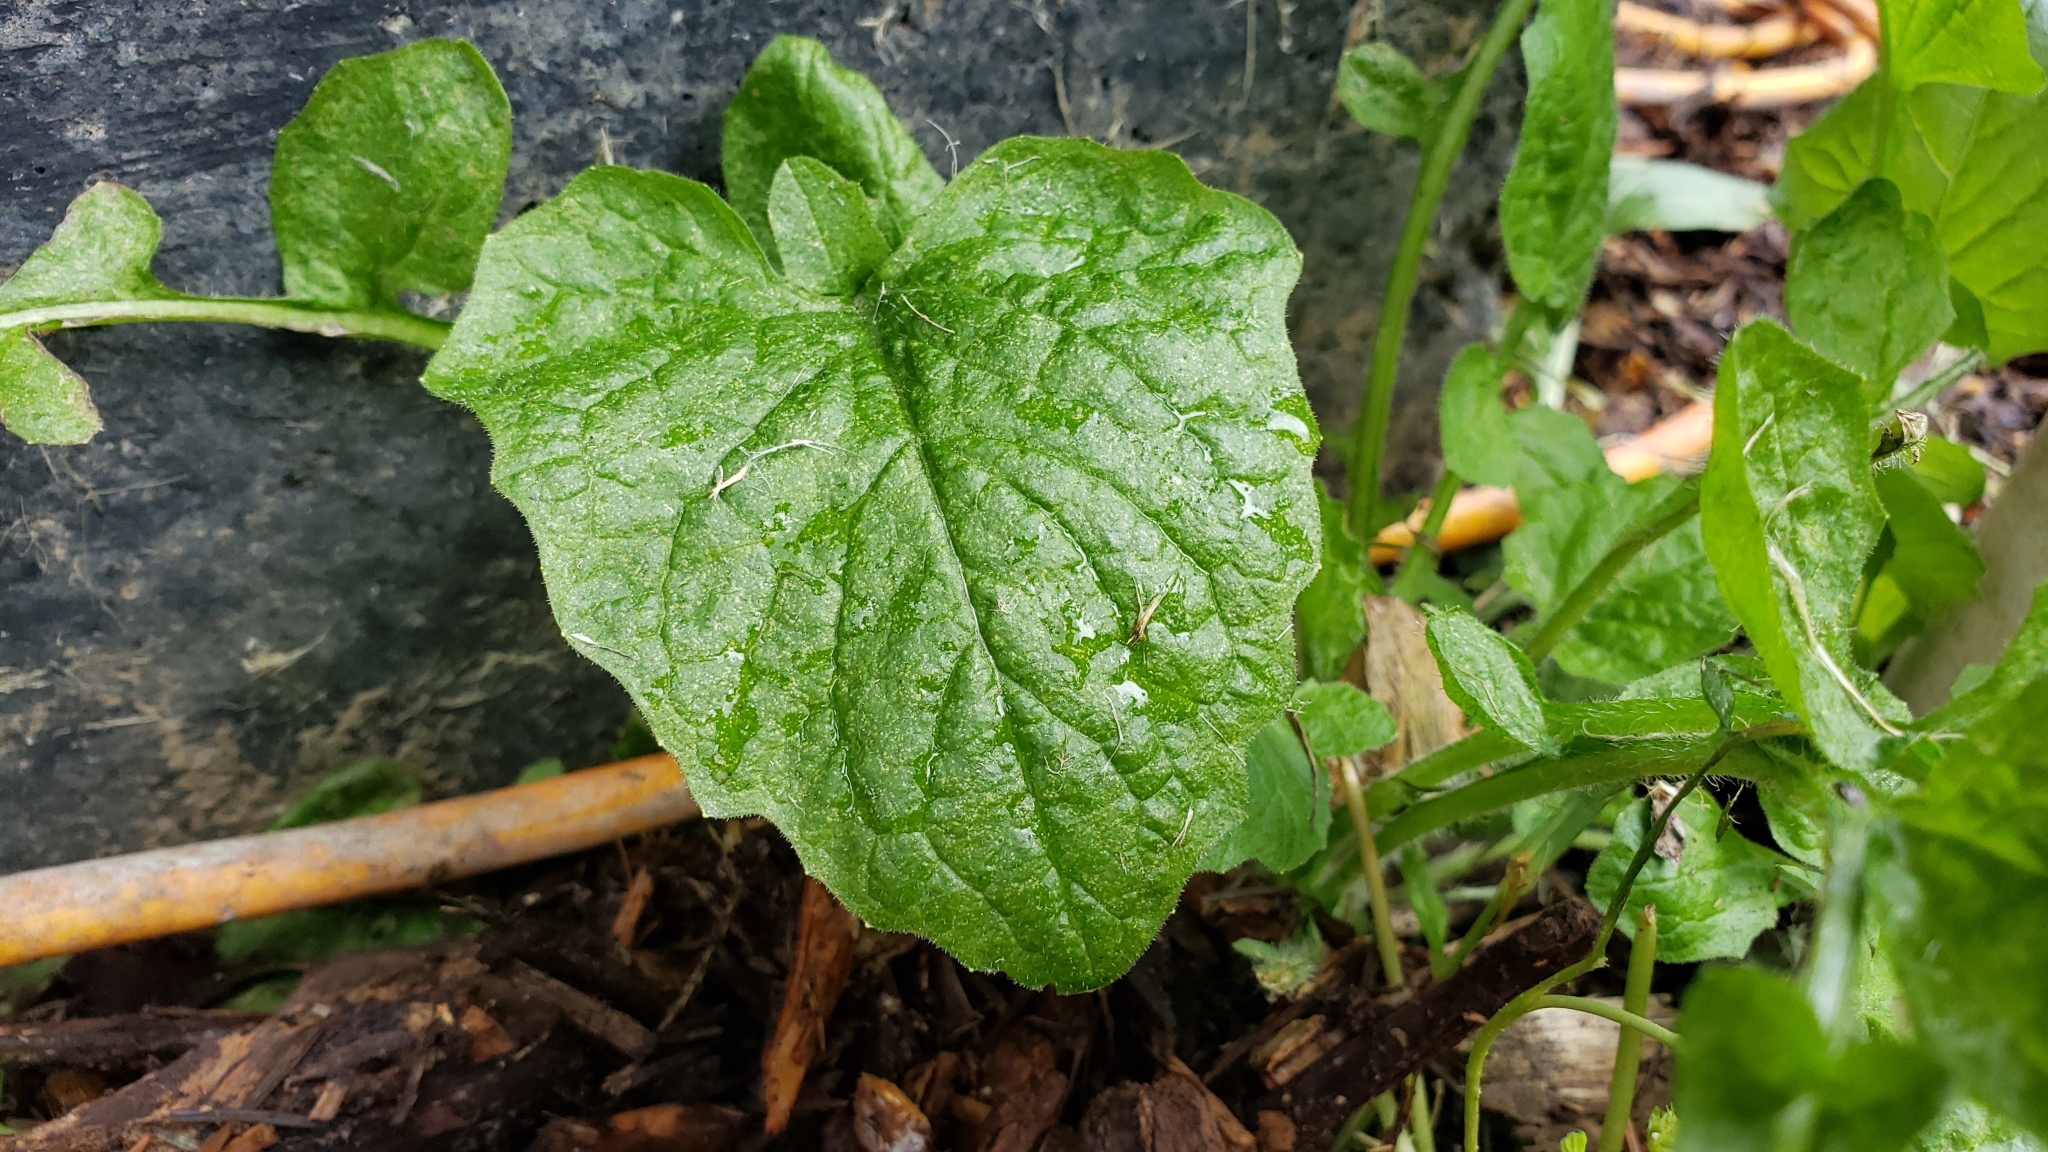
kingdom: Plantae
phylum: Tracheophyta
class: Magnoliopsida
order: Asterales
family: Asteraceae
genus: Lapsana
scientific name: Lapsana communis
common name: Nipplewort
